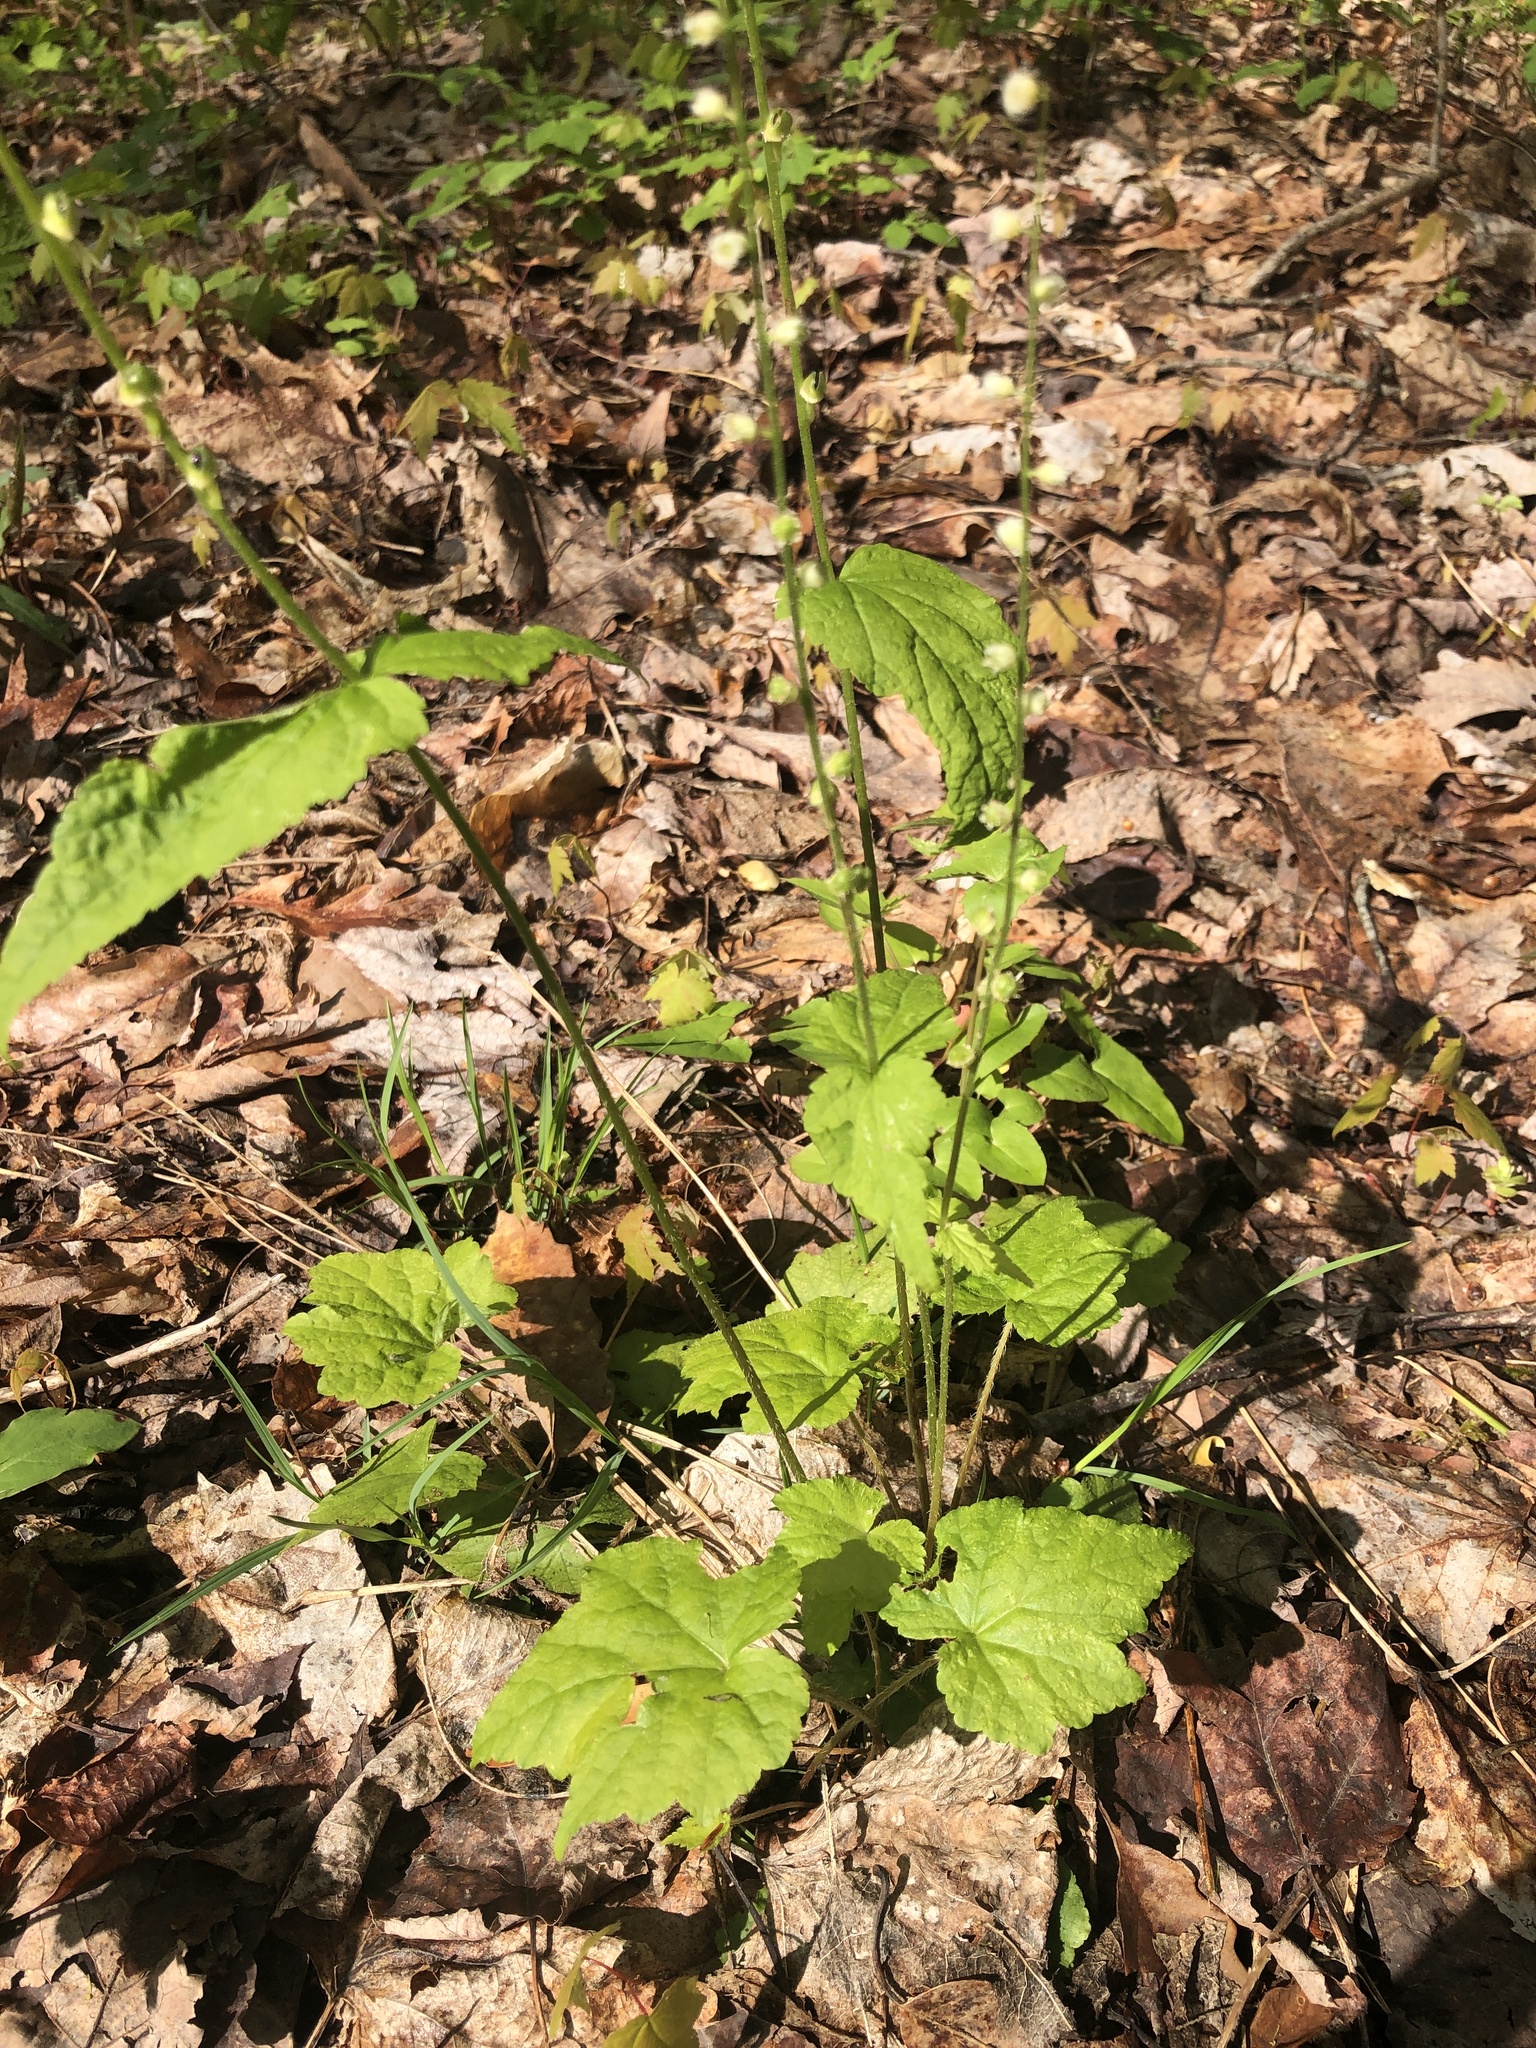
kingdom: Plantae
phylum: Tracheophyta
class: Magnoliopsida
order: Saxifragales
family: Saxifragaceae
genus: Mitella
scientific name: Mitella diphylla
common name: Coolwort
